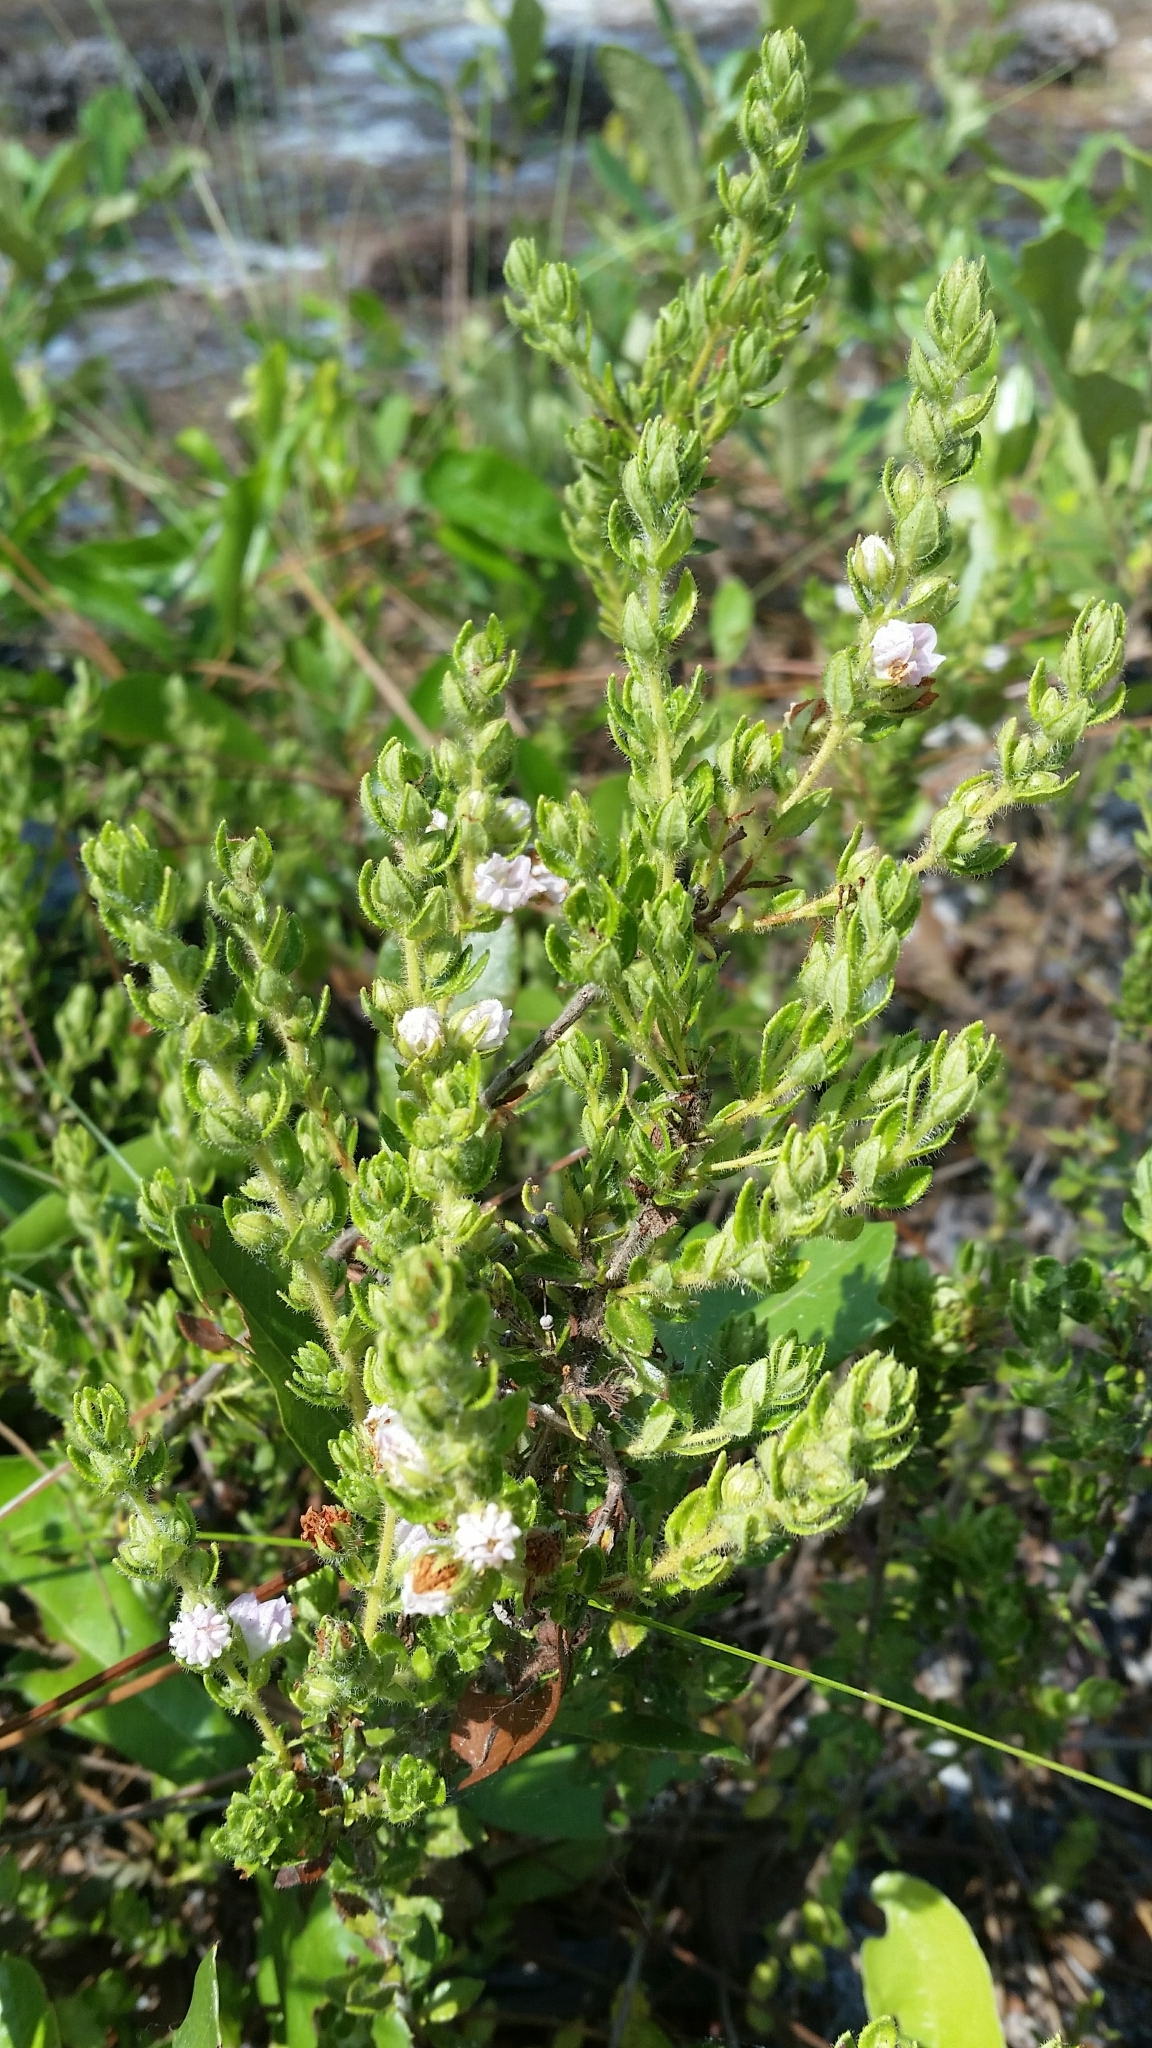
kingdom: Plantae
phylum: Tracheophyta
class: Magnoliopsida
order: Ericales
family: Ericaceae
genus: Kalmia
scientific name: Kalmia hirsuta
